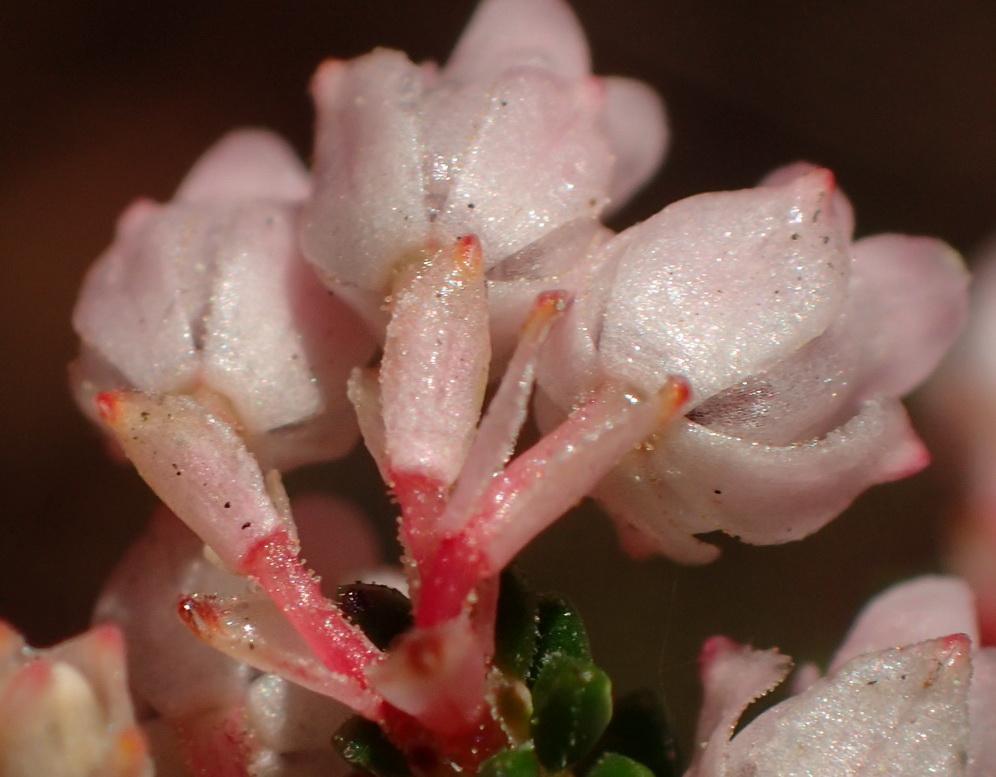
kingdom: Plantae
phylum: Tracheophyta
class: Magnoliopsida
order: Ericales
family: Ericaceae
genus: Erica
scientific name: Erica brevifolia
